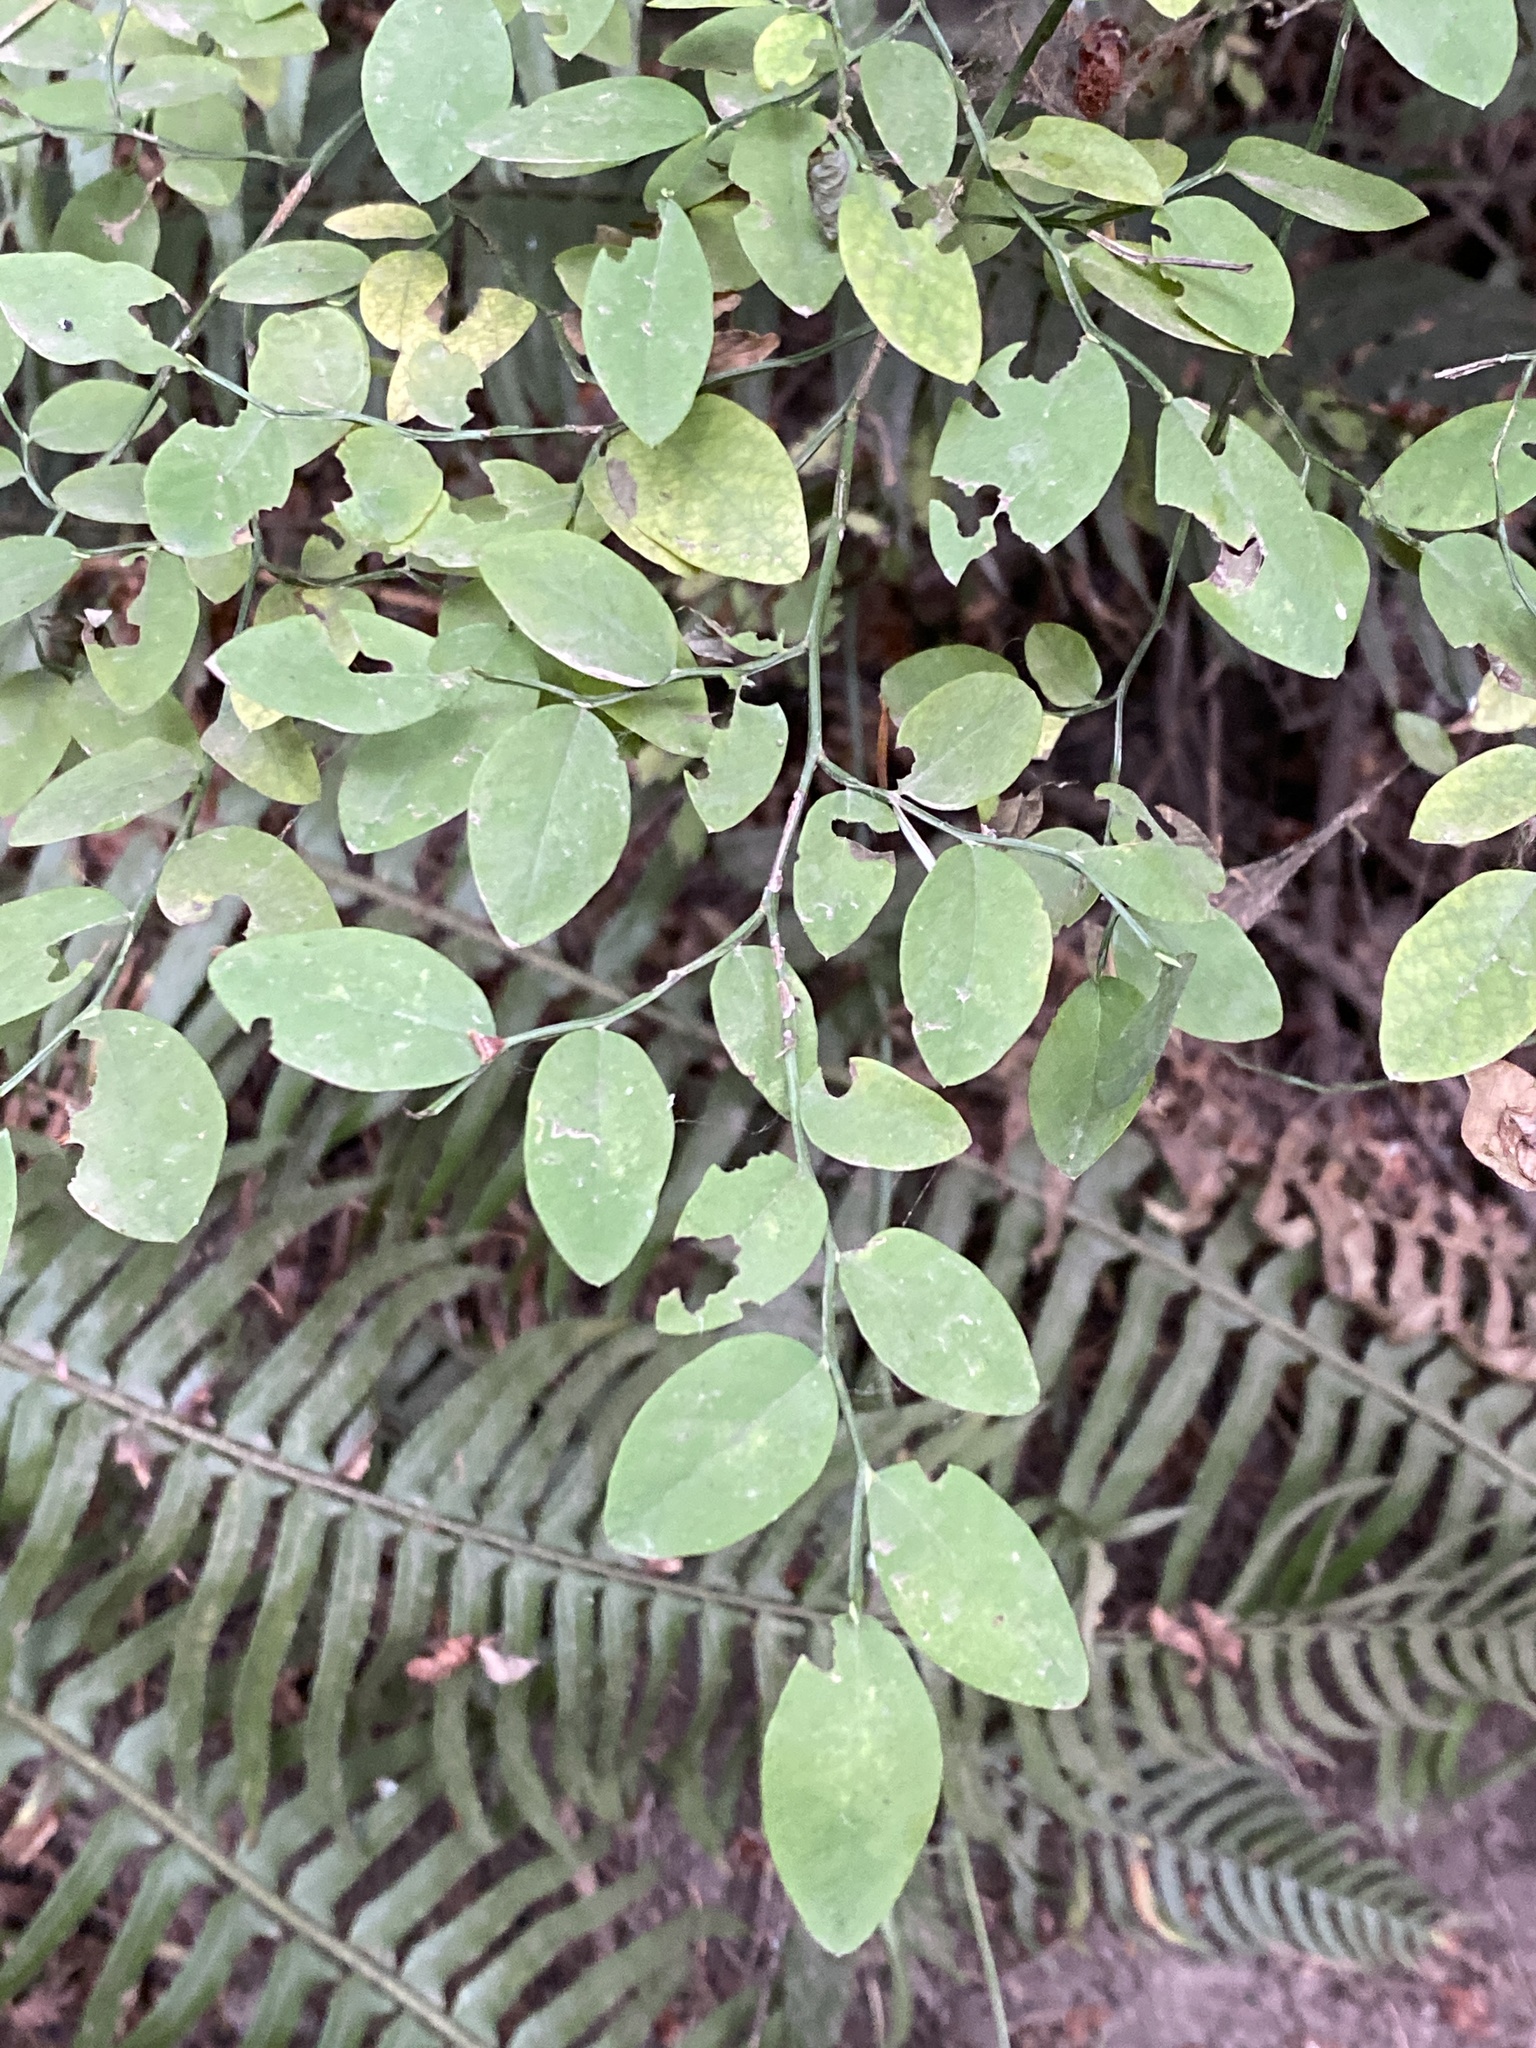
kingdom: Plantae
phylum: Tracheophyta
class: Magnoliopsida
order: Ericales
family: Ericaceae
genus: Vaccinium
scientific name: Vaccinium parvifolium
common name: Red-huckleberry
